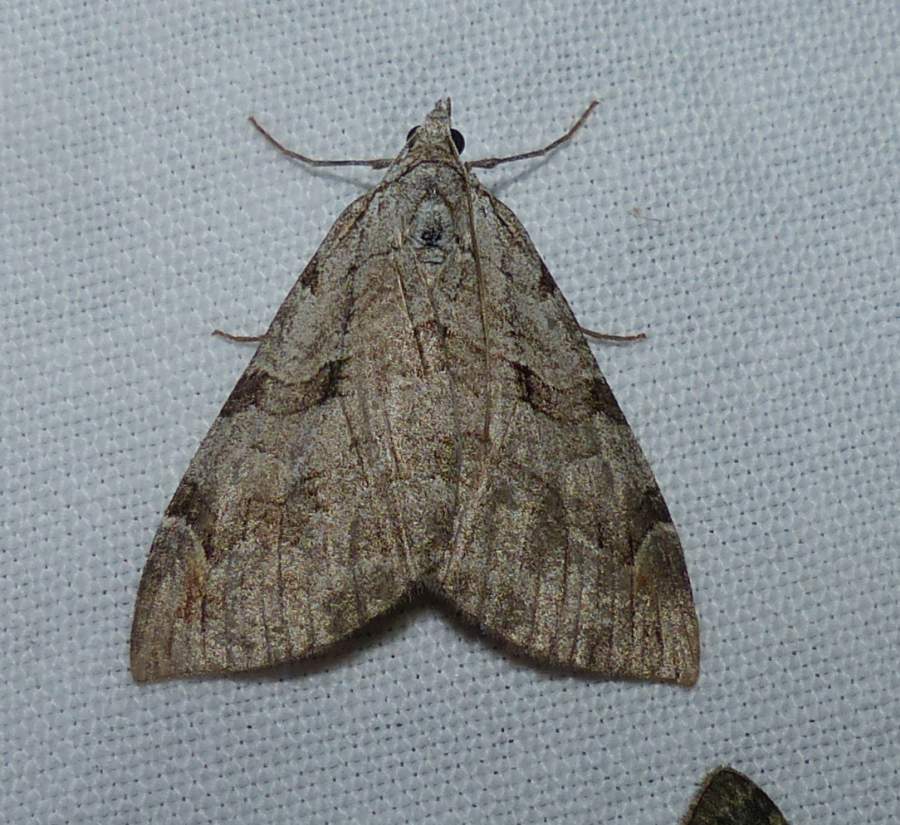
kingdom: Animalia
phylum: Arthropoda
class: Insecta
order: Lepidoptera
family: Geometridae
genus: Aplocera
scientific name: Aplocera plagiata
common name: Treble-bar
